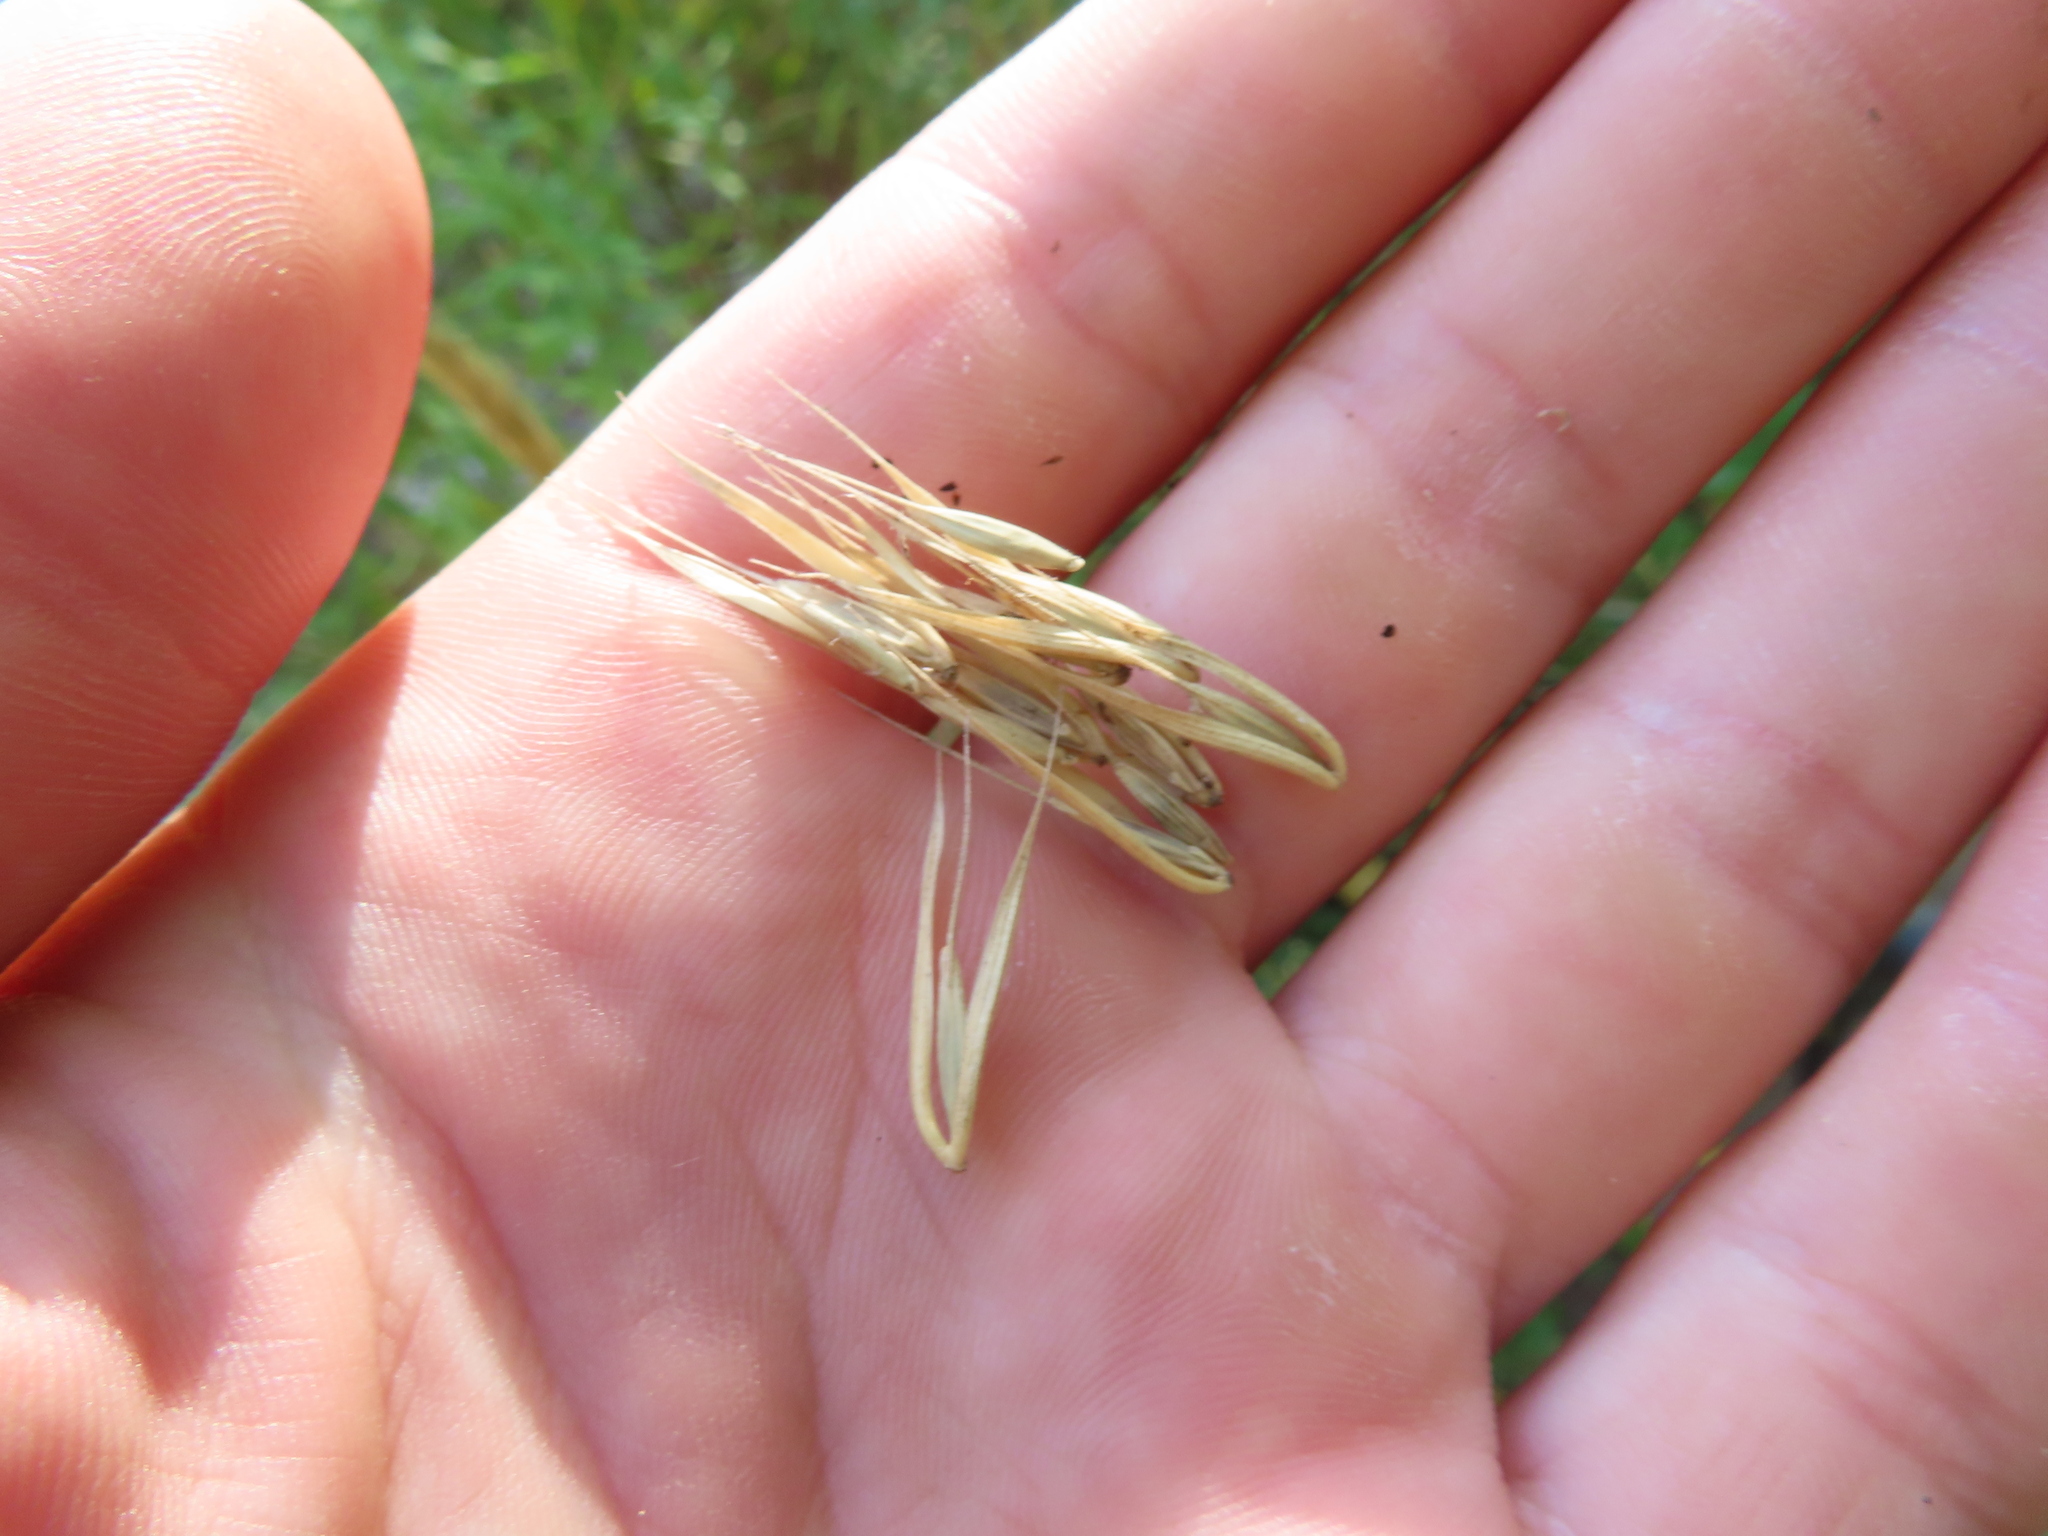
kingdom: Plantae
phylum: Tracheophyta
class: Liliopsida
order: Poales
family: Poaceae
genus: Elymus
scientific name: Elymus virginicus
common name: Common eastern wildrye
